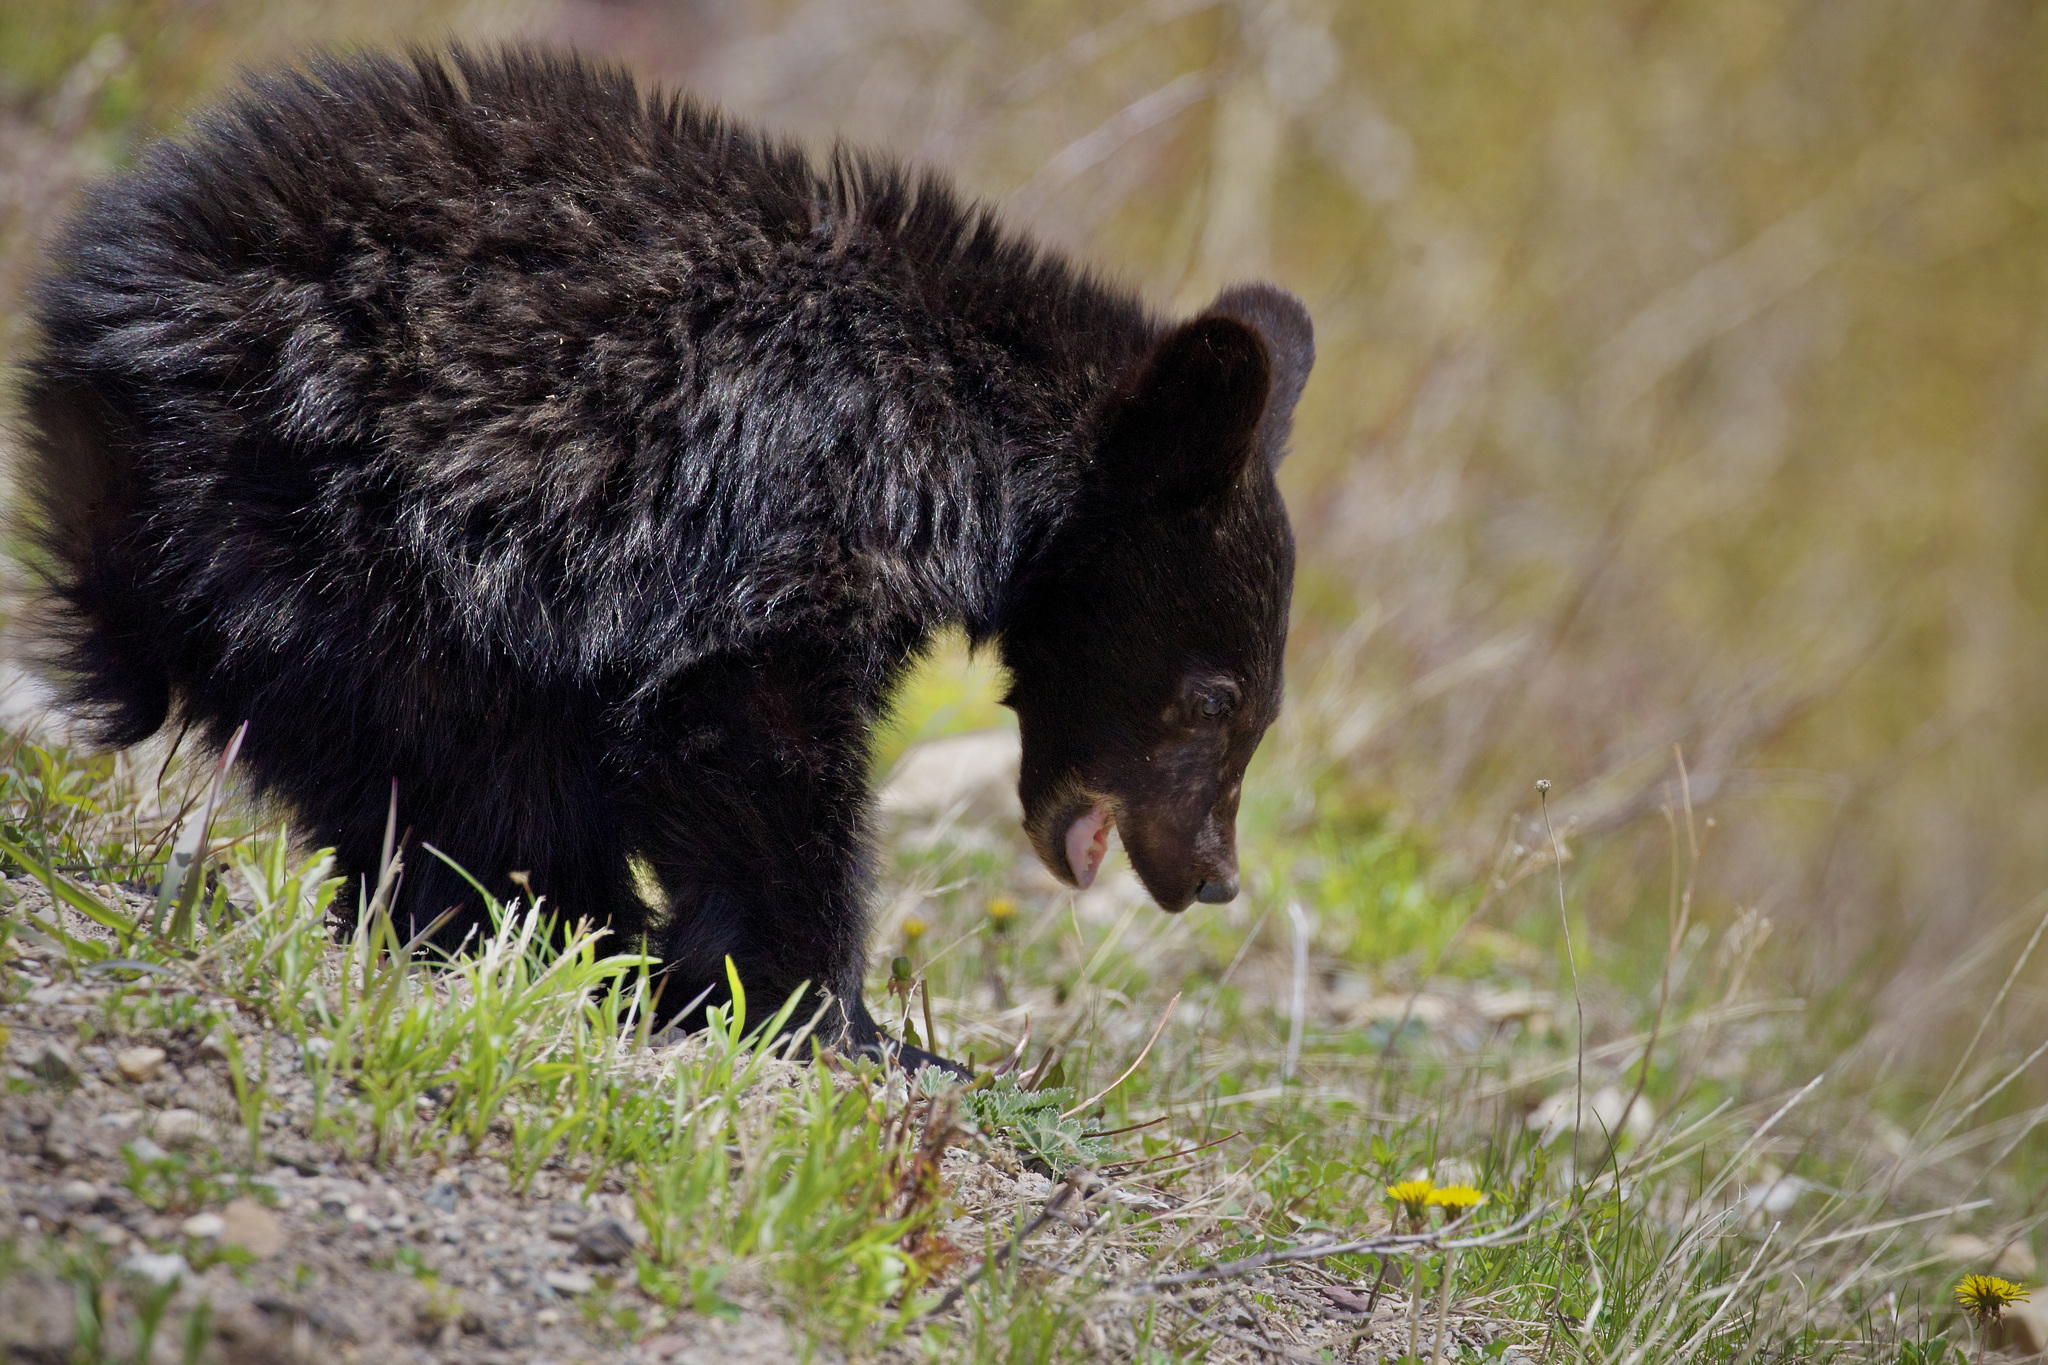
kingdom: Animalia
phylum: Chordata
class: Mammalia
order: Carnivora
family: Ursidae
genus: Ursus
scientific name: Ursus americanus
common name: American black bear
